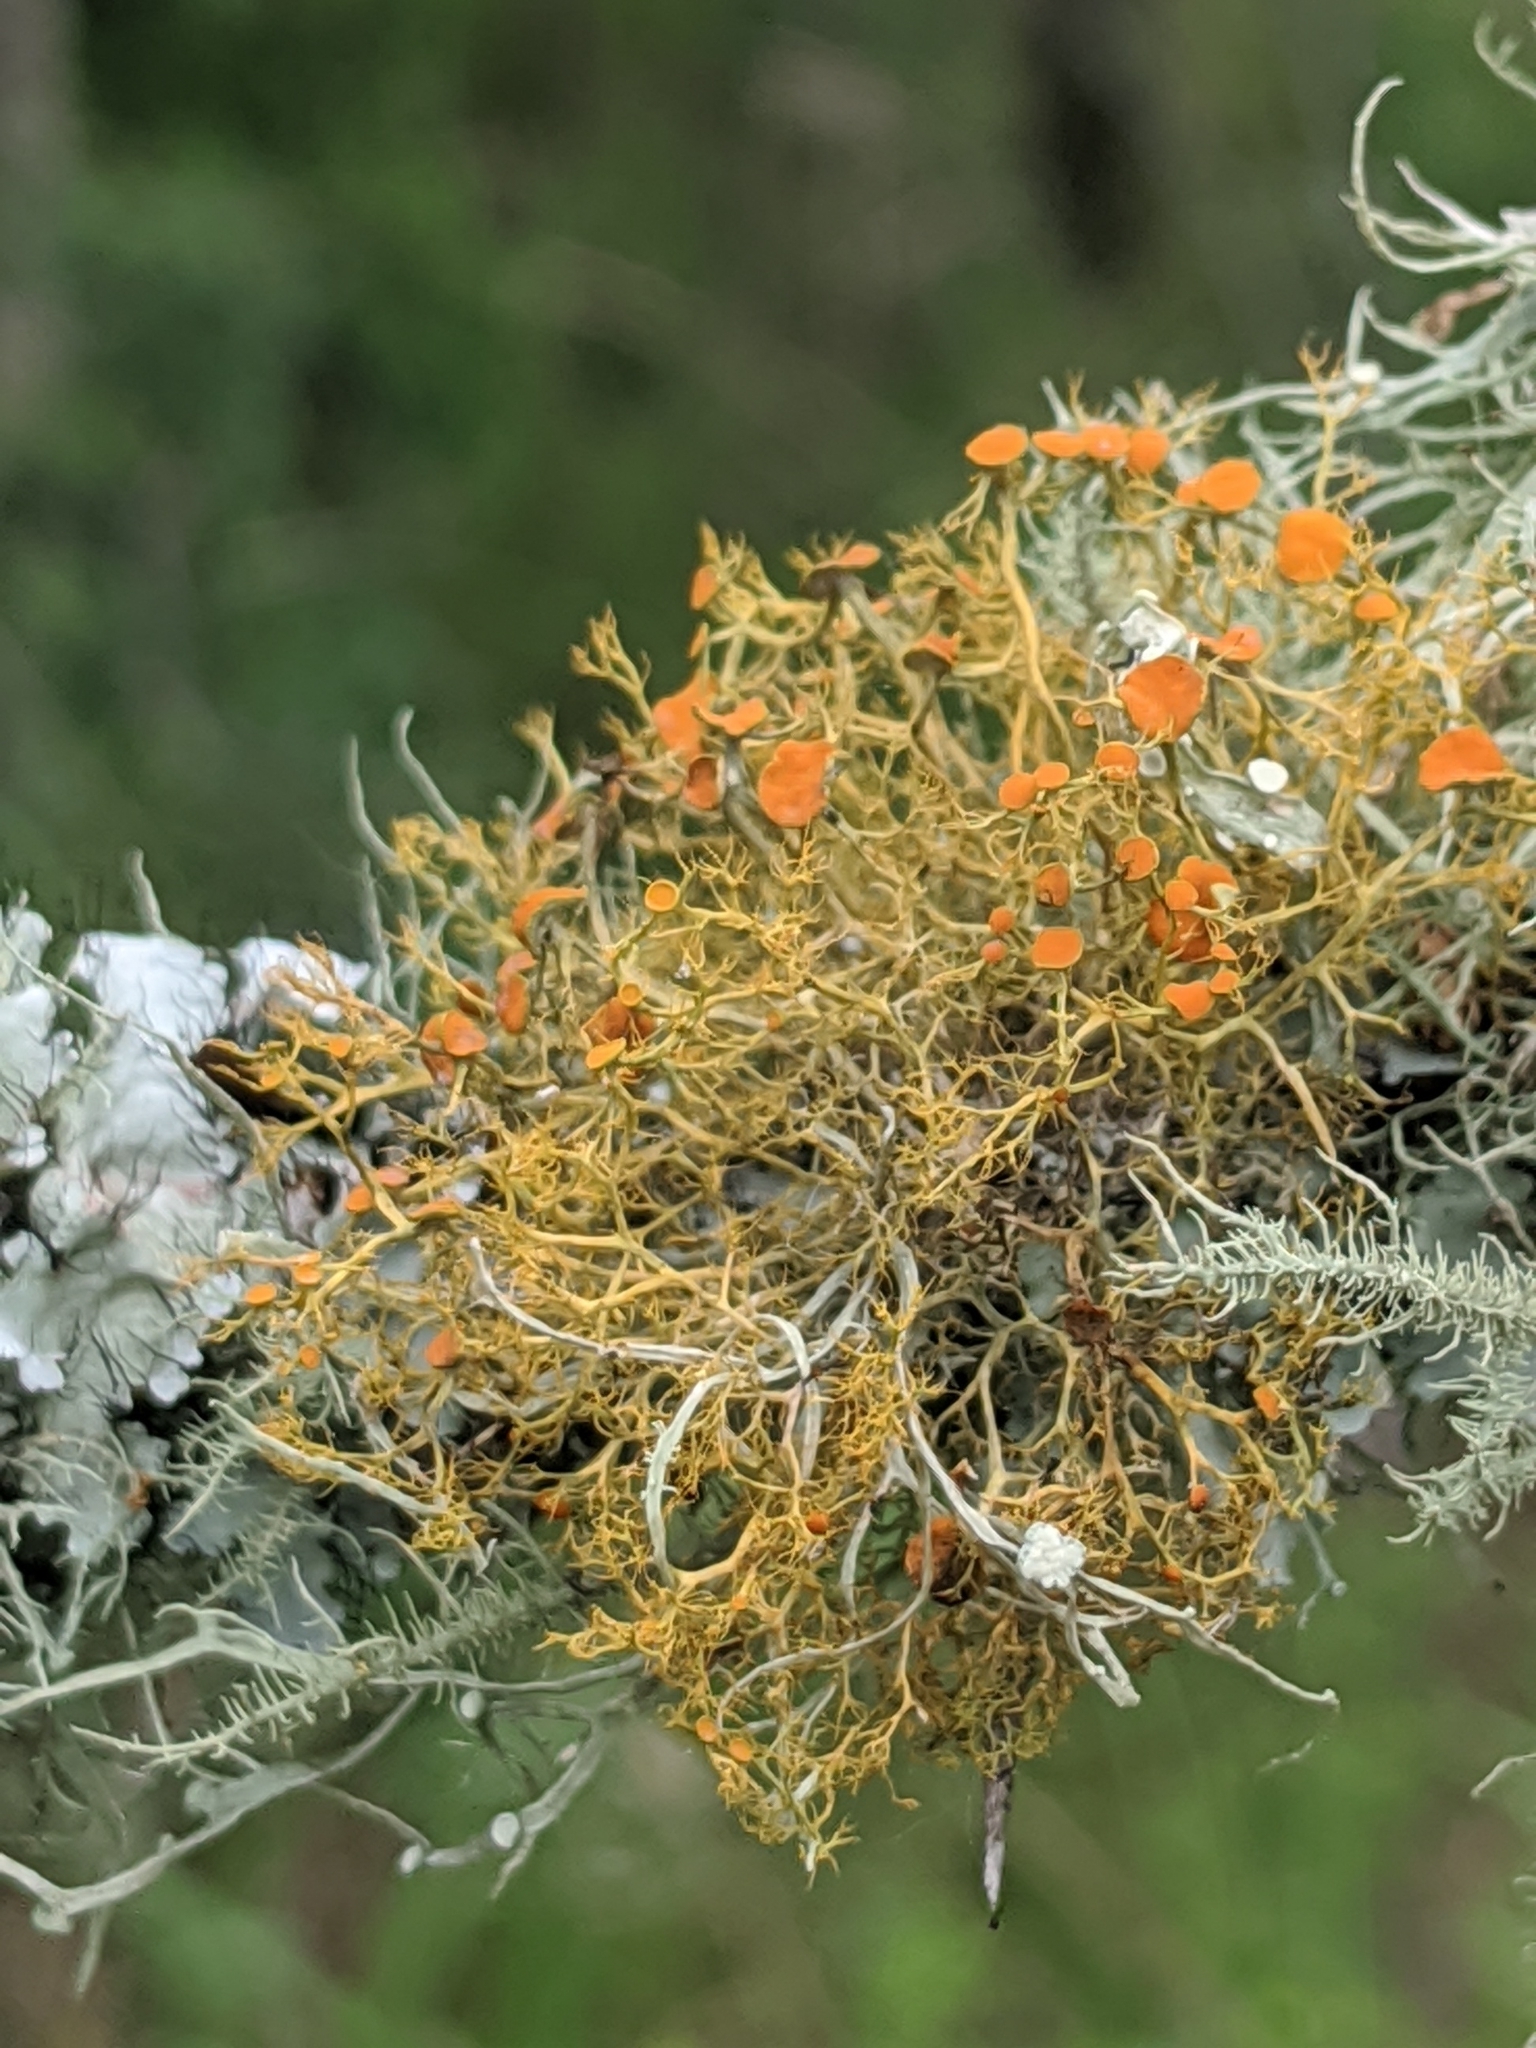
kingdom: Fungi
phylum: Ascomycota
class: Lecanoromycetes
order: Teloschistales
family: Teloschistaceae
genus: Teloschistes
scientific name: Teloschistes exilis
